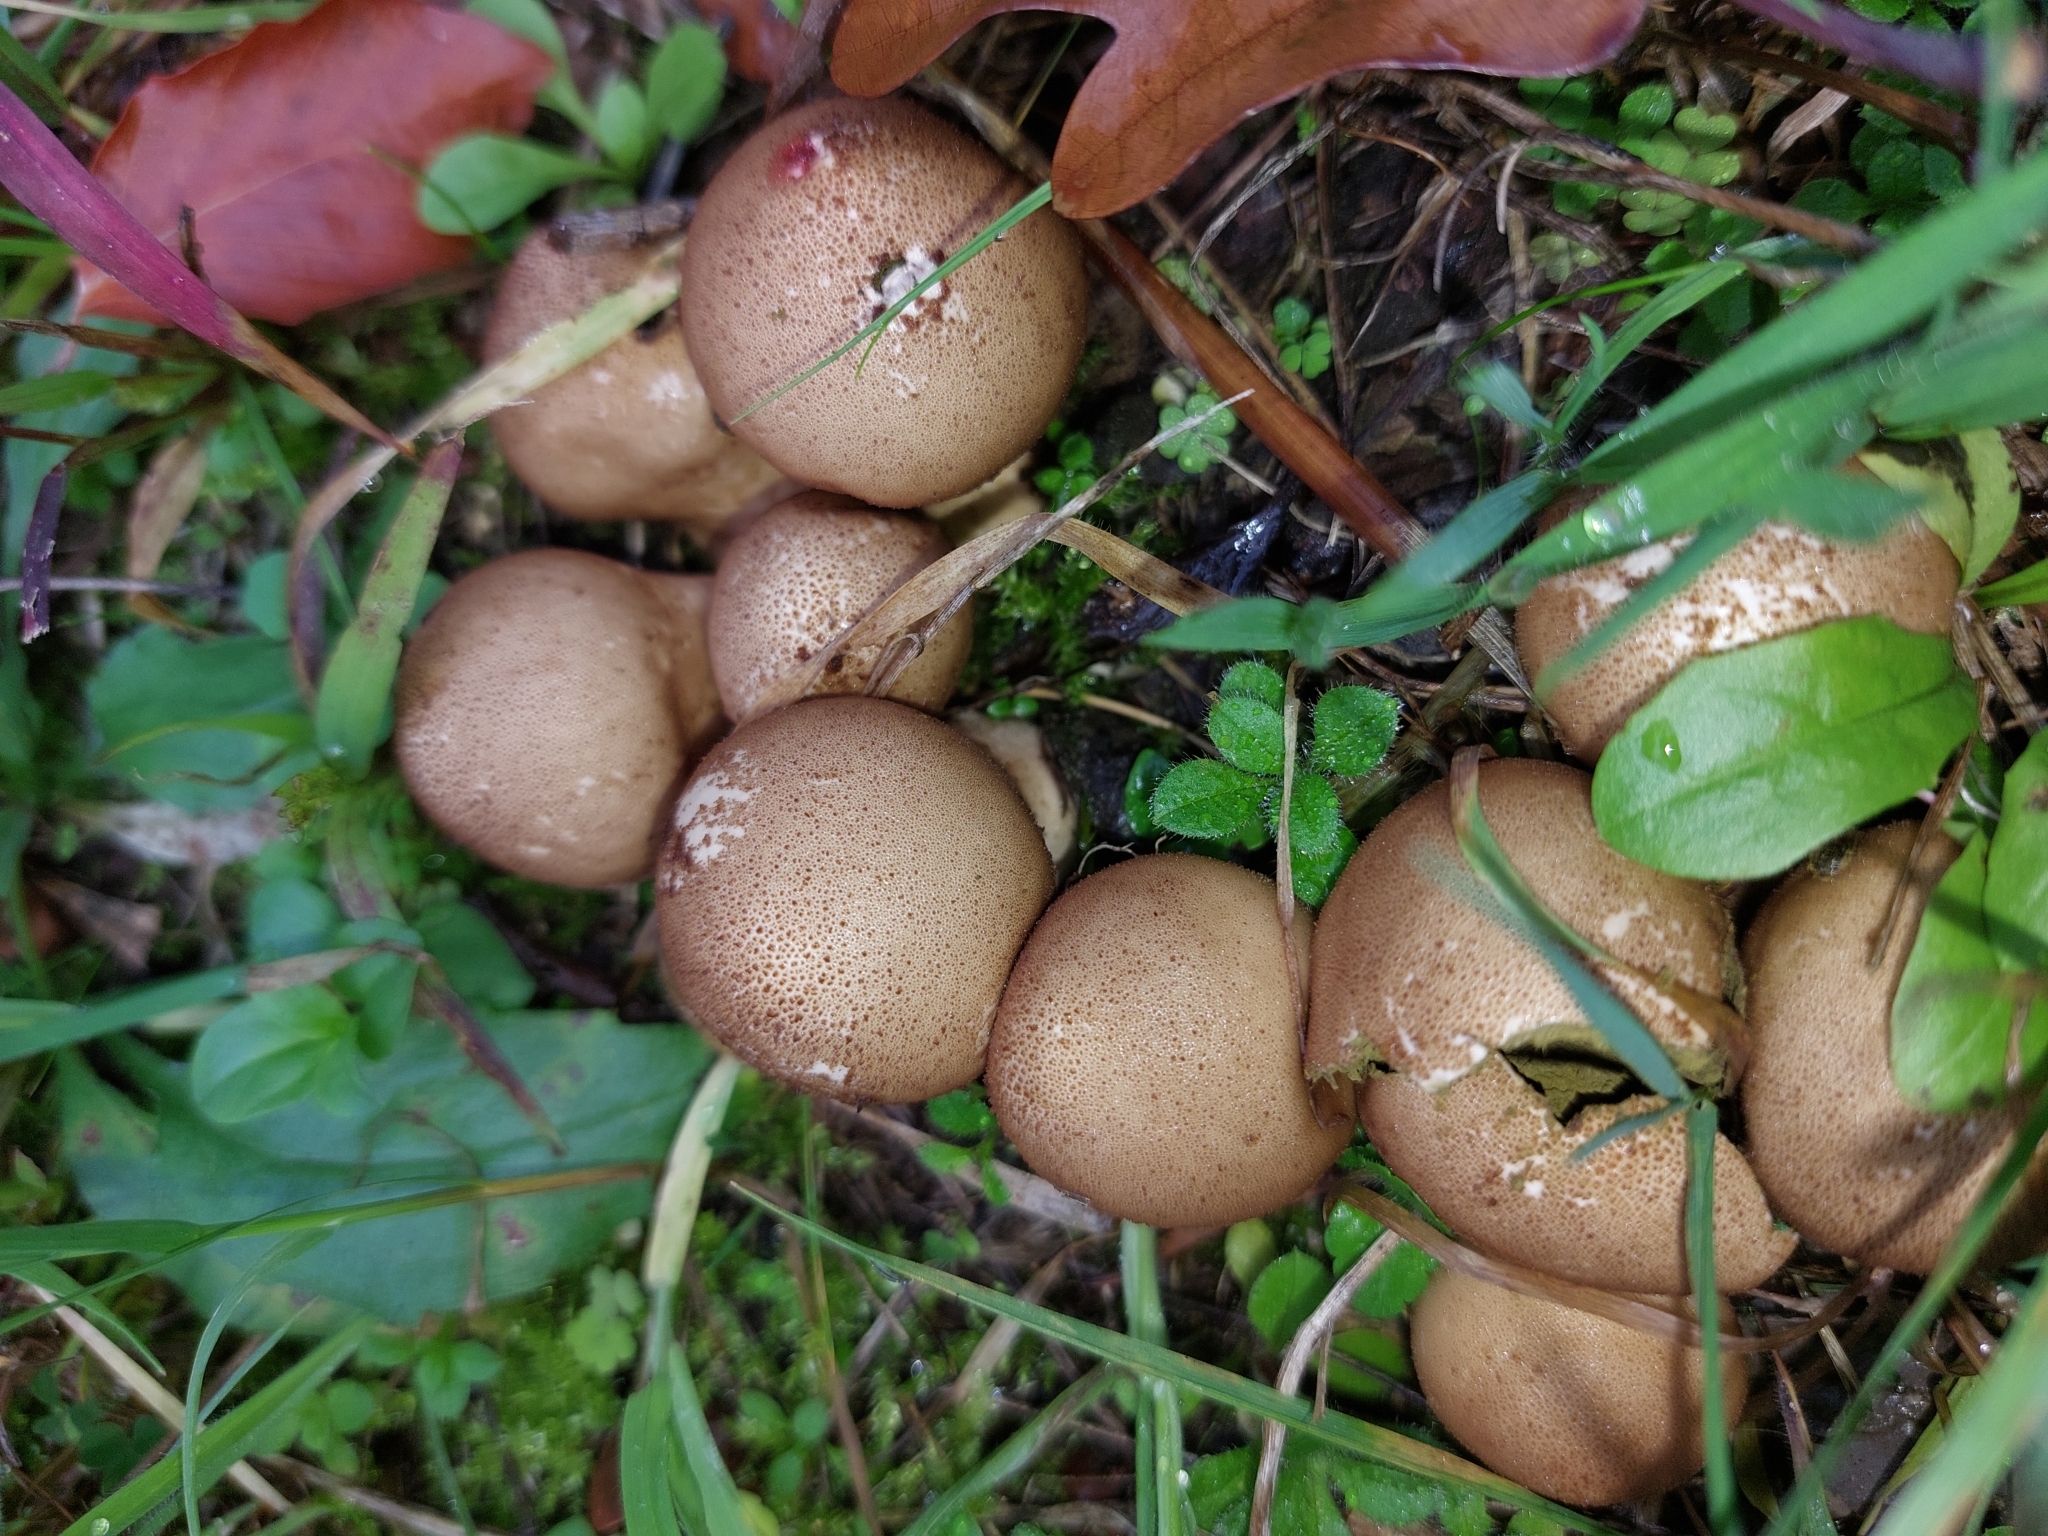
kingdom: Fungi
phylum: Basidiomycota
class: Agaricomycetes
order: Agaricales
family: Lycoperdaceae
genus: Apioperdon
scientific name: Apioperdon pyriforme
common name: Pear-shaped puffball
